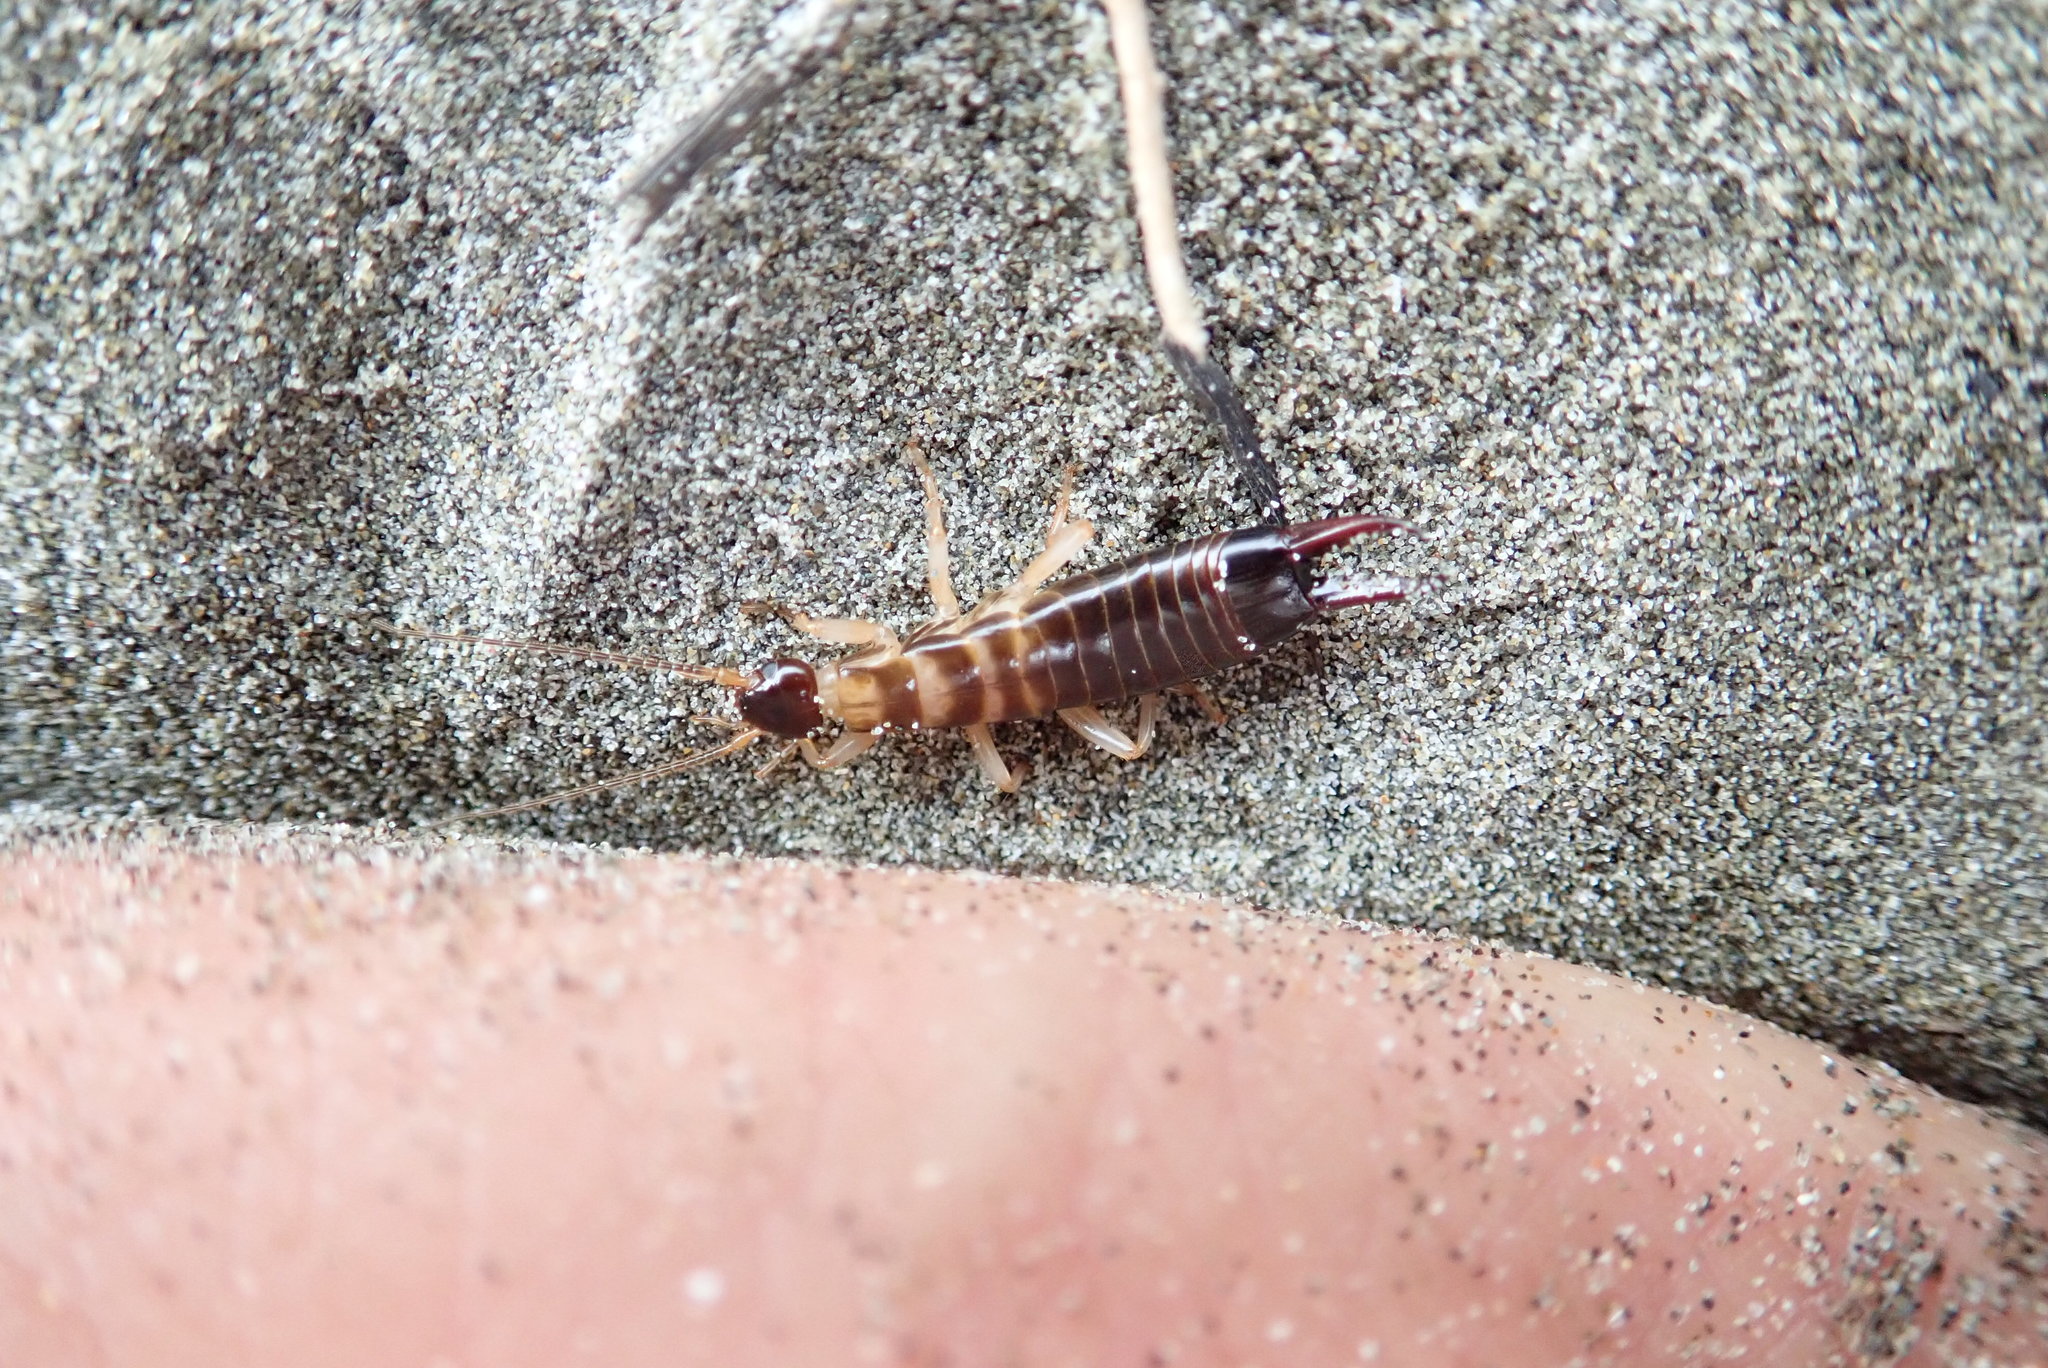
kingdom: Animalia
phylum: Arthropoda
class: Insecta
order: Dermaptera
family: Anisolabididae
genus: Anisolabis
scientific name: Anisolabis littorea
